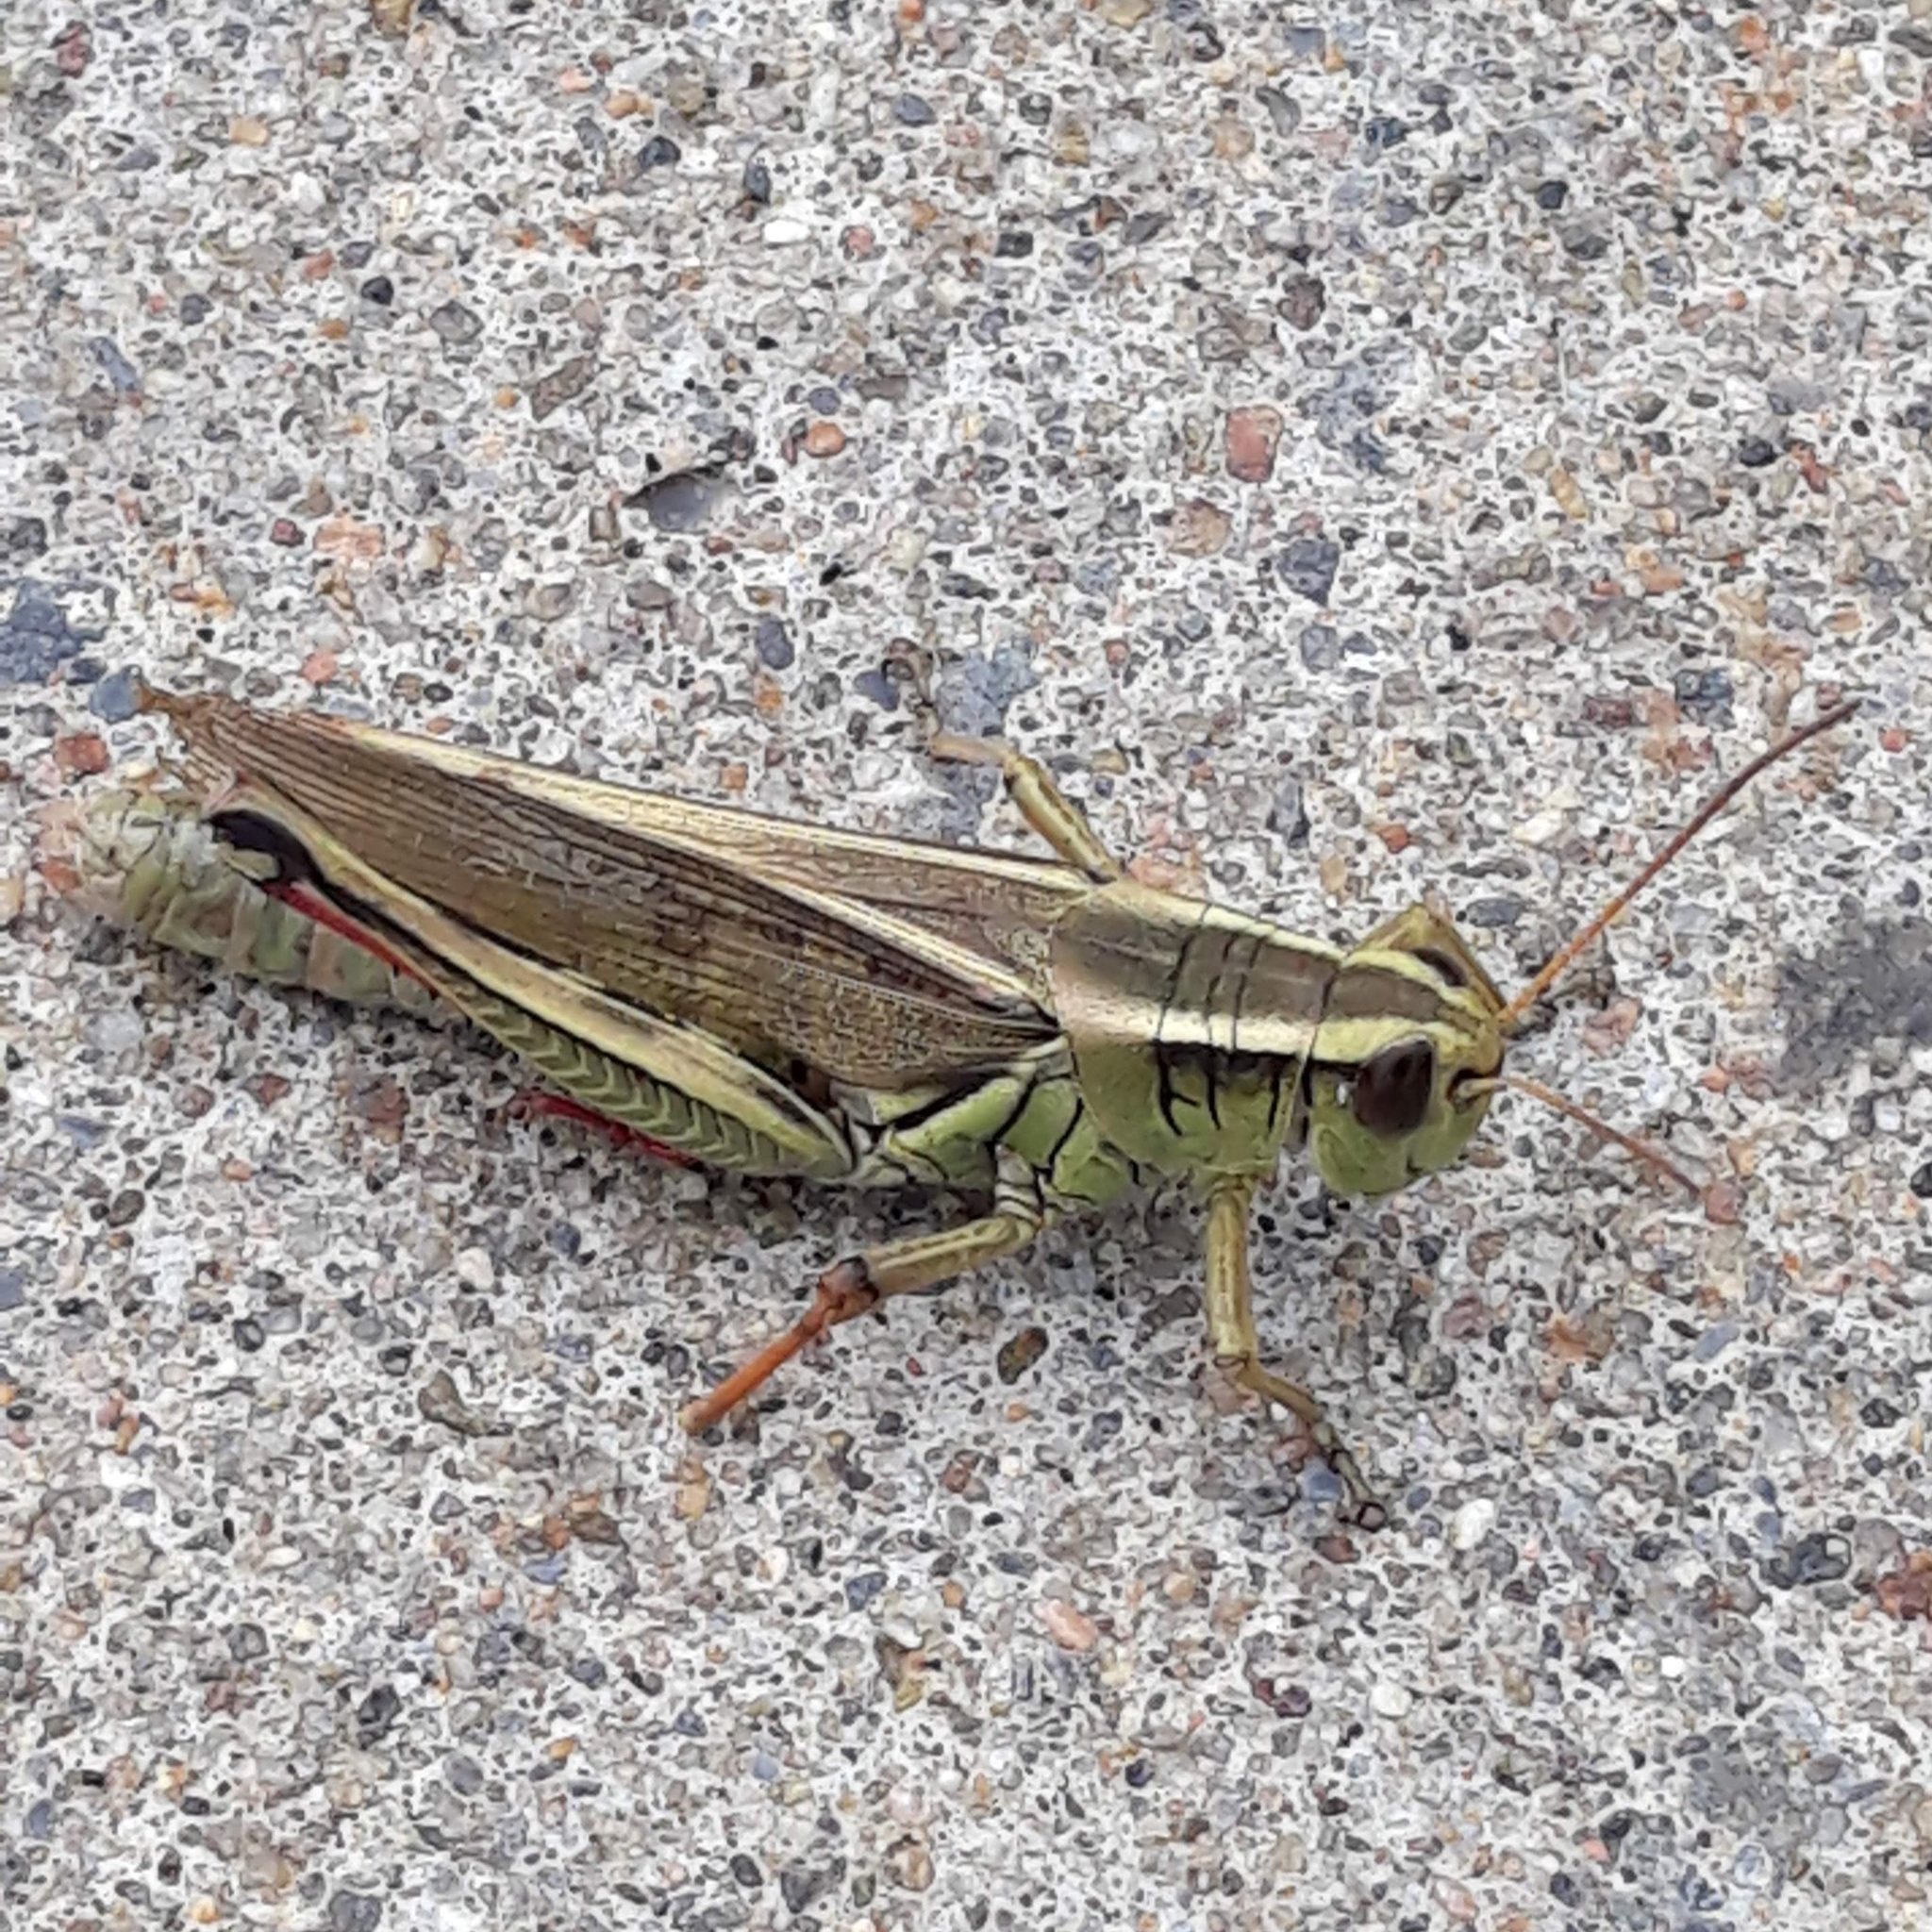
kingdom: Animalia
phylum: Arthropoda
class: Insecta
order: Orthoptera
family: Acrididae
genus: Melanoplus
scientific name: Melanoplus bivittatus
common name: Two-striped grasshopper
